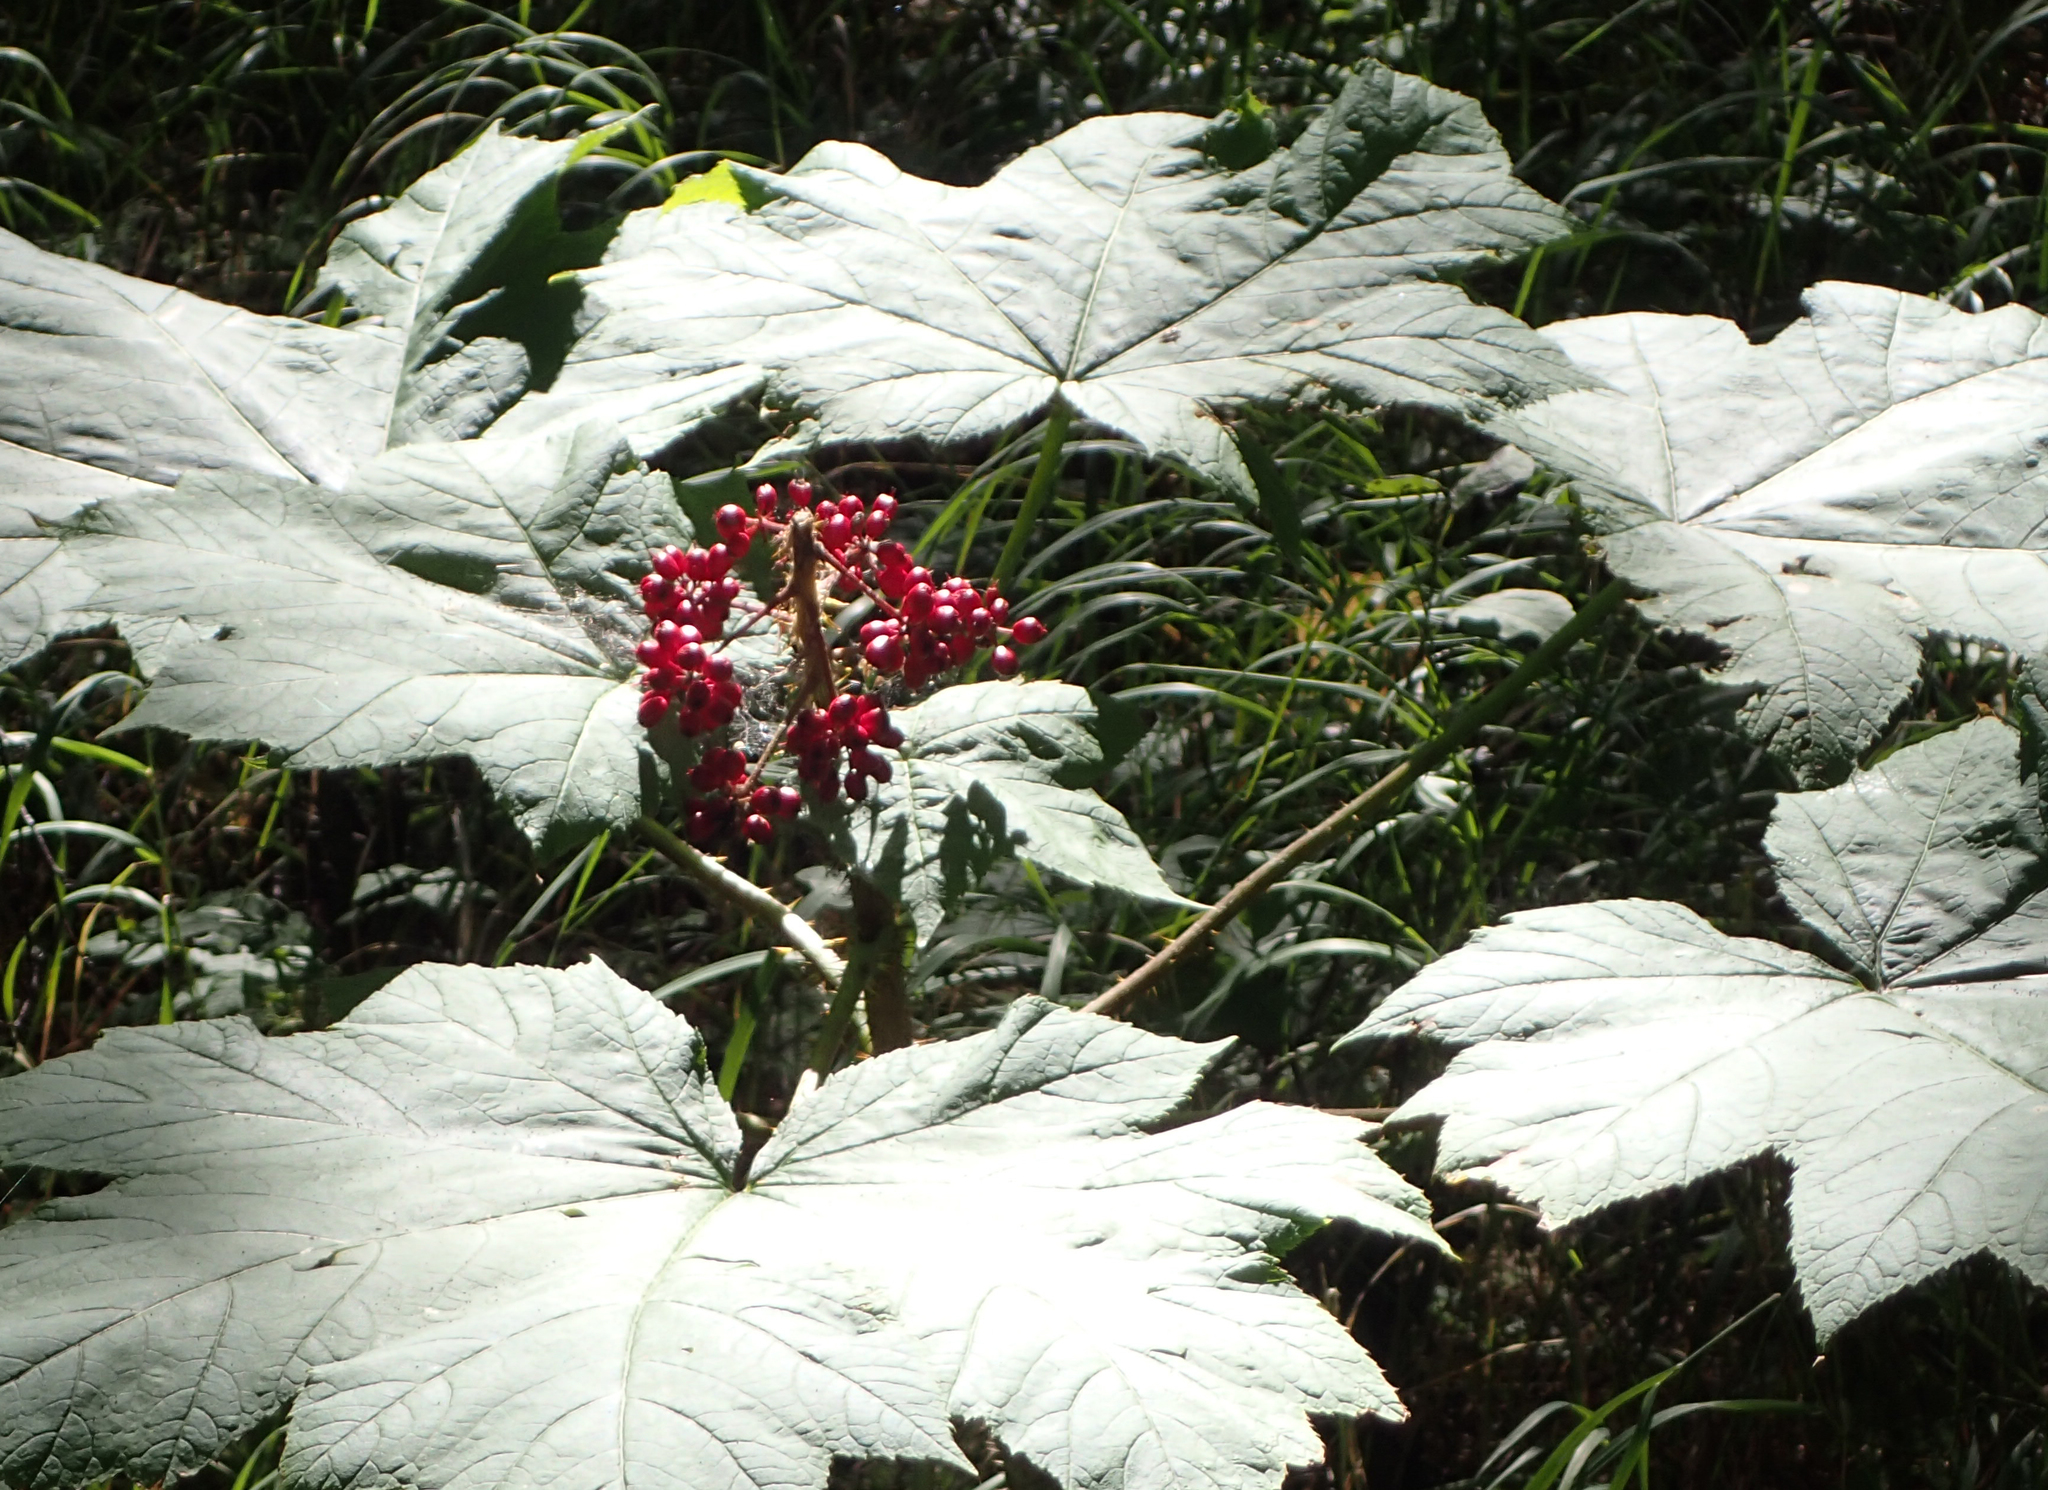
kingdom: Plantae
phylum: Tracheophyta
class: Magnoliopsida
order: Apiales
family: Araliaceae
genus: Oplopanax
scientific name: Oplopanax horridus
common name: Devil's walking-stick
